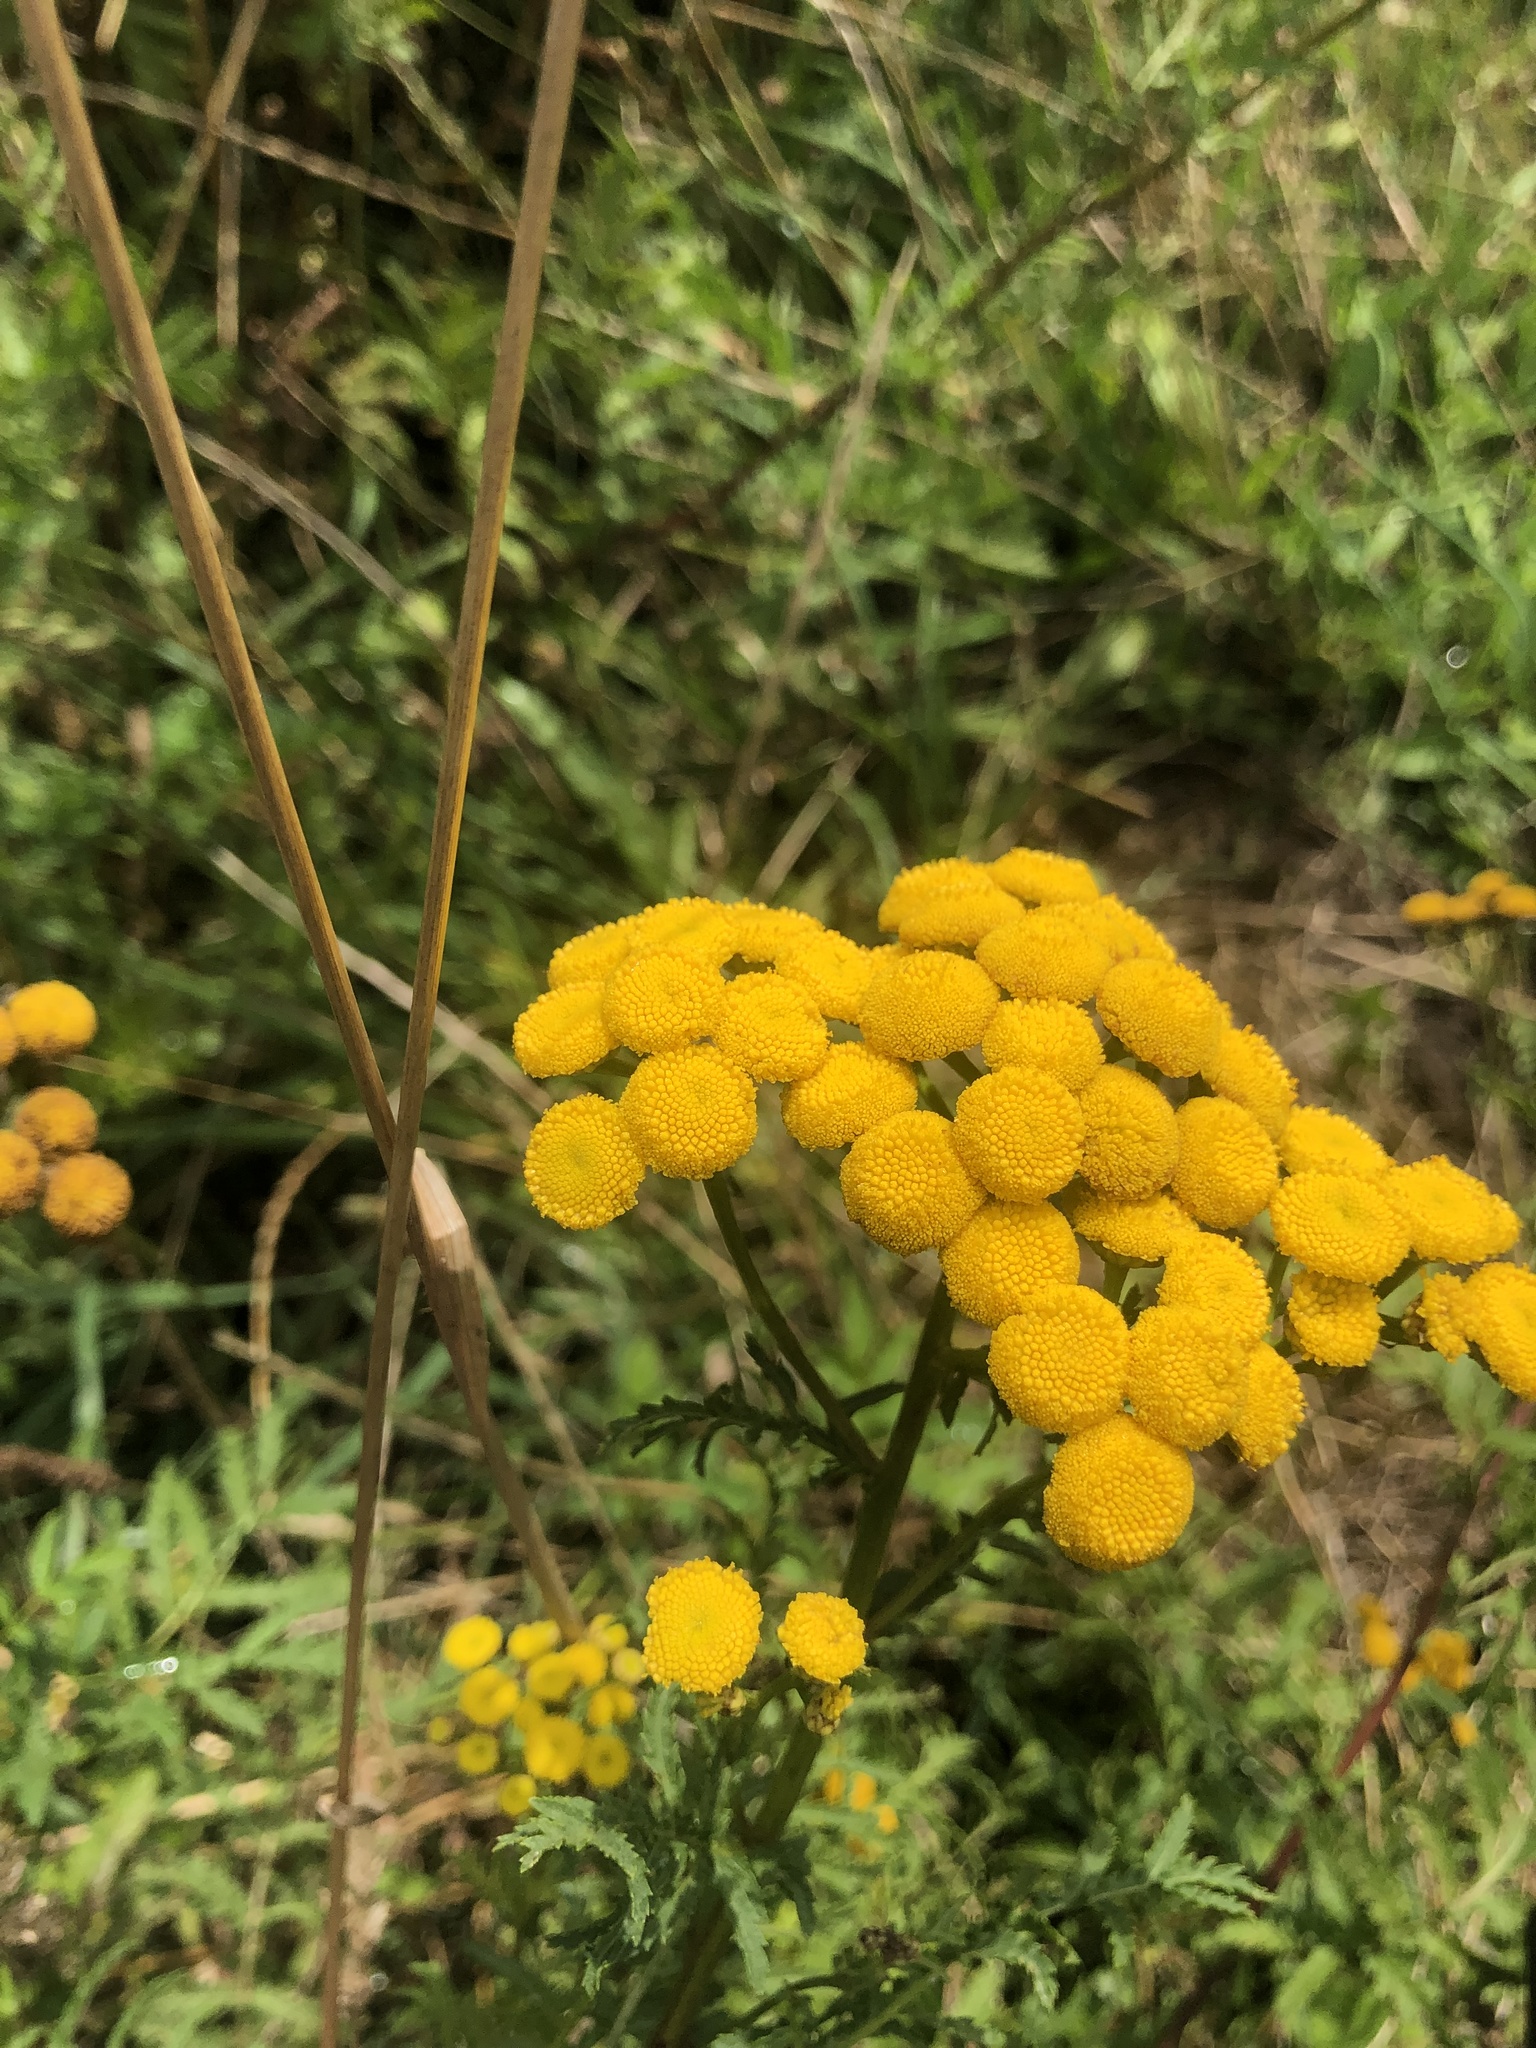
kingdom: Plantae
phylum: Tracheophyta
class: Magnoliopsida
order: Asterales
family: Asteraceae
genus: Tanacetum
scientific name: Tanacetum vulgare
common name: Common tansy
